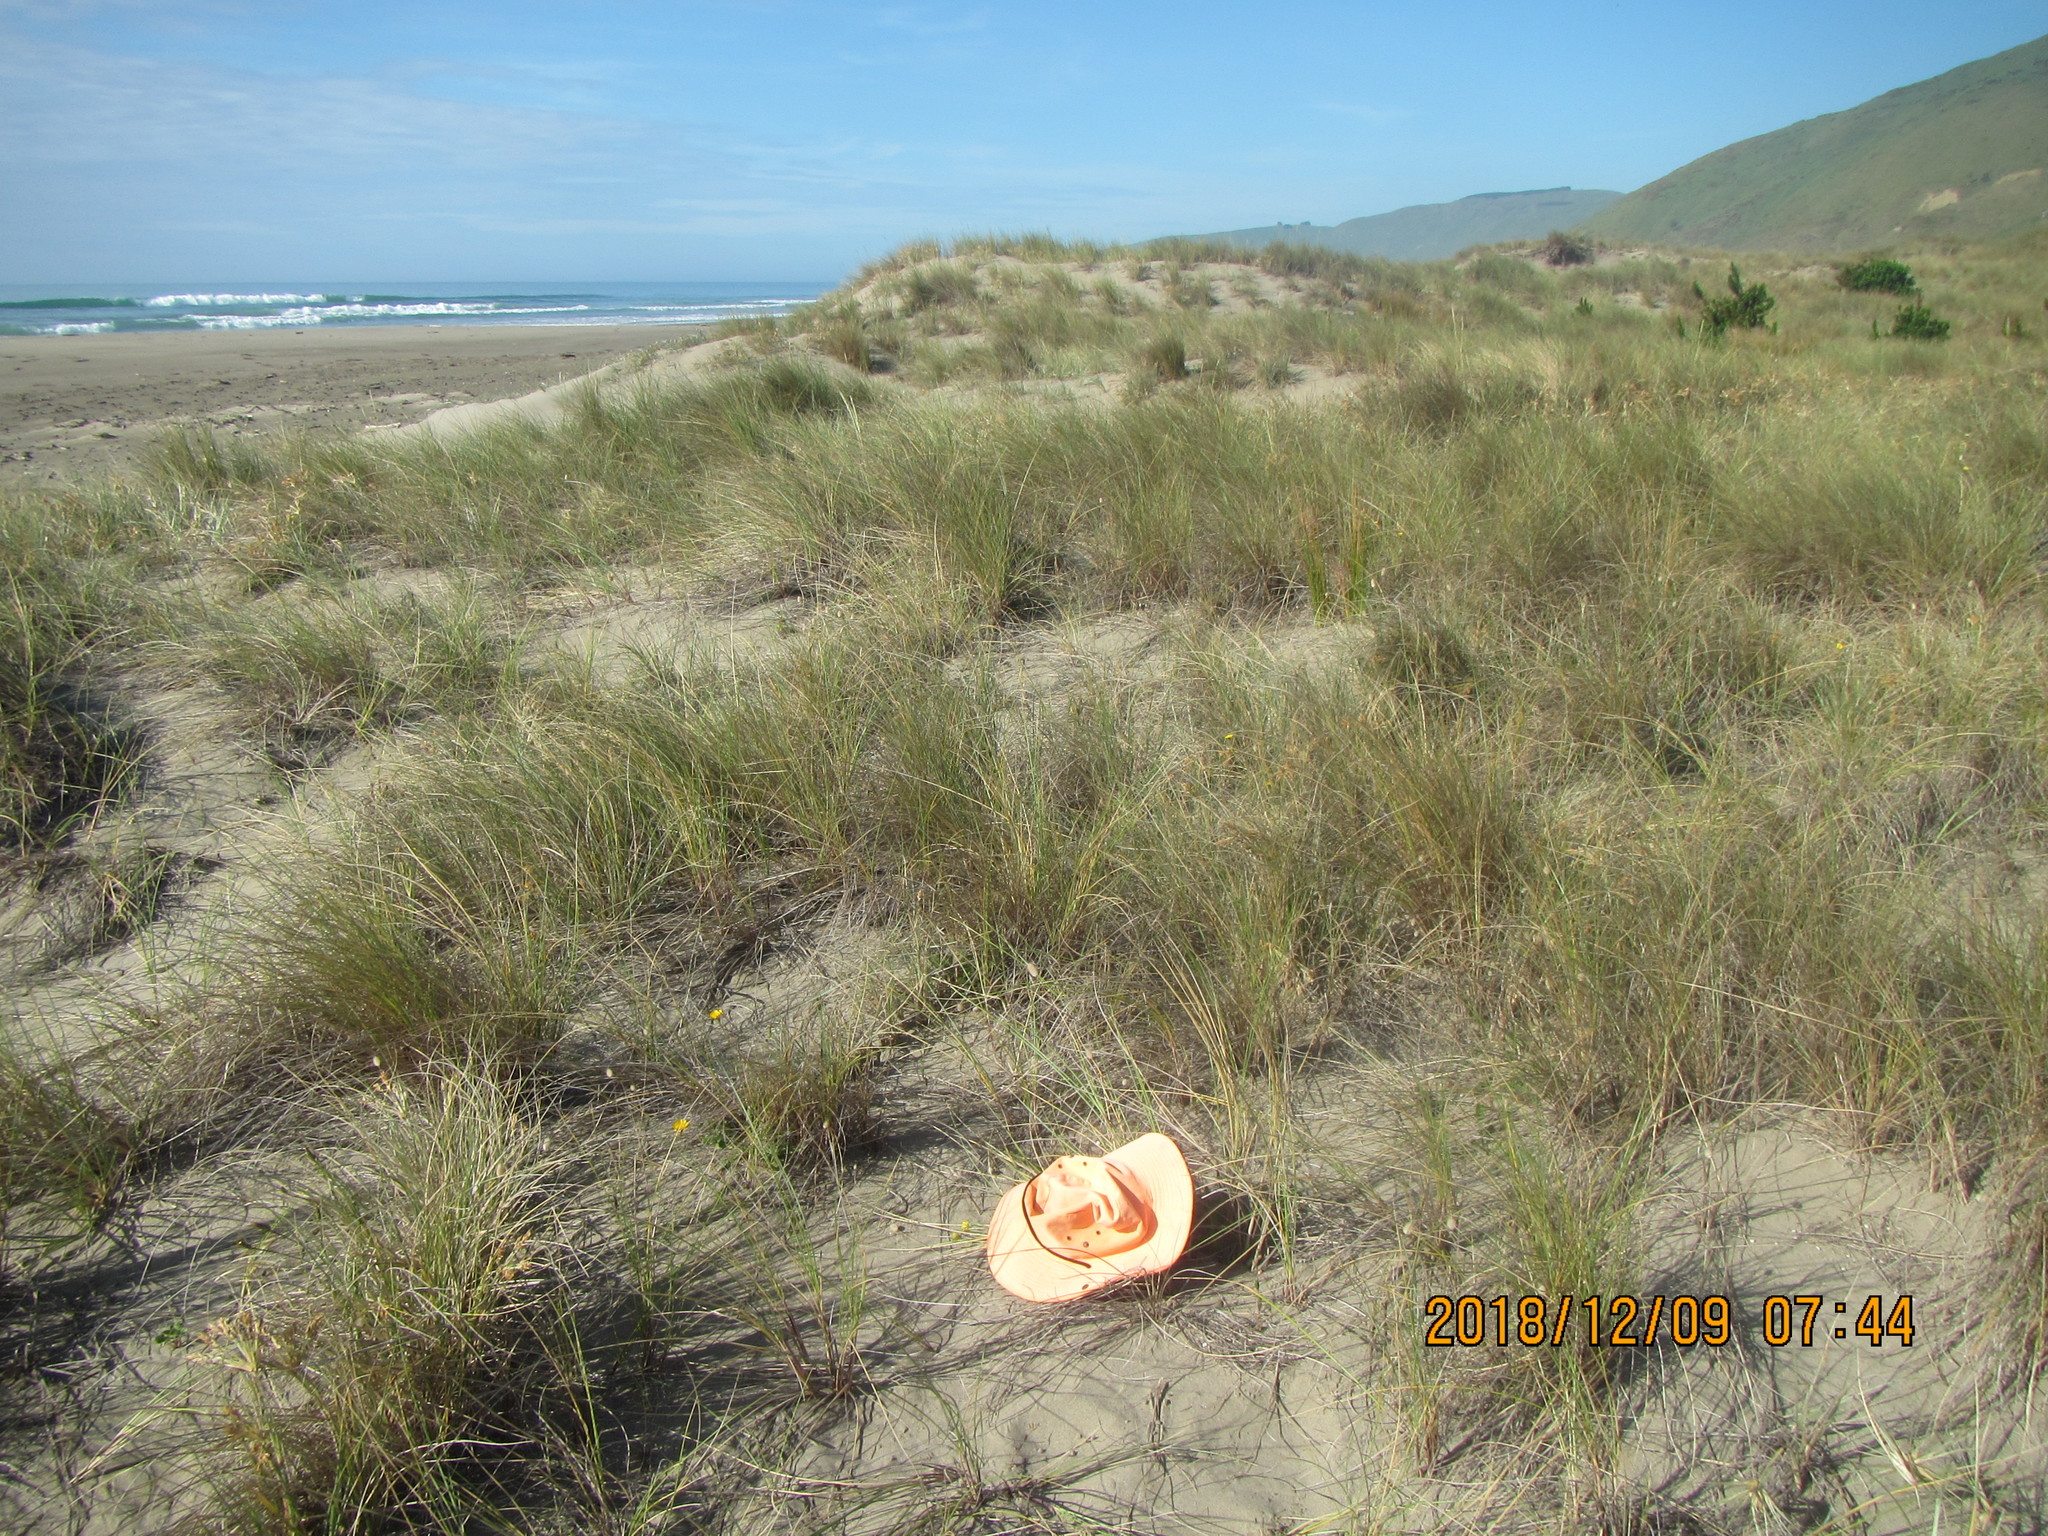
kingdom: Plantae
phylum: Tracheophyta
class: Magnoliopsida
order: Asterales
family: Asteraceae
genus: Hypochaeris
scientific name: Hypochaeris radicata
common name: Flatweed
